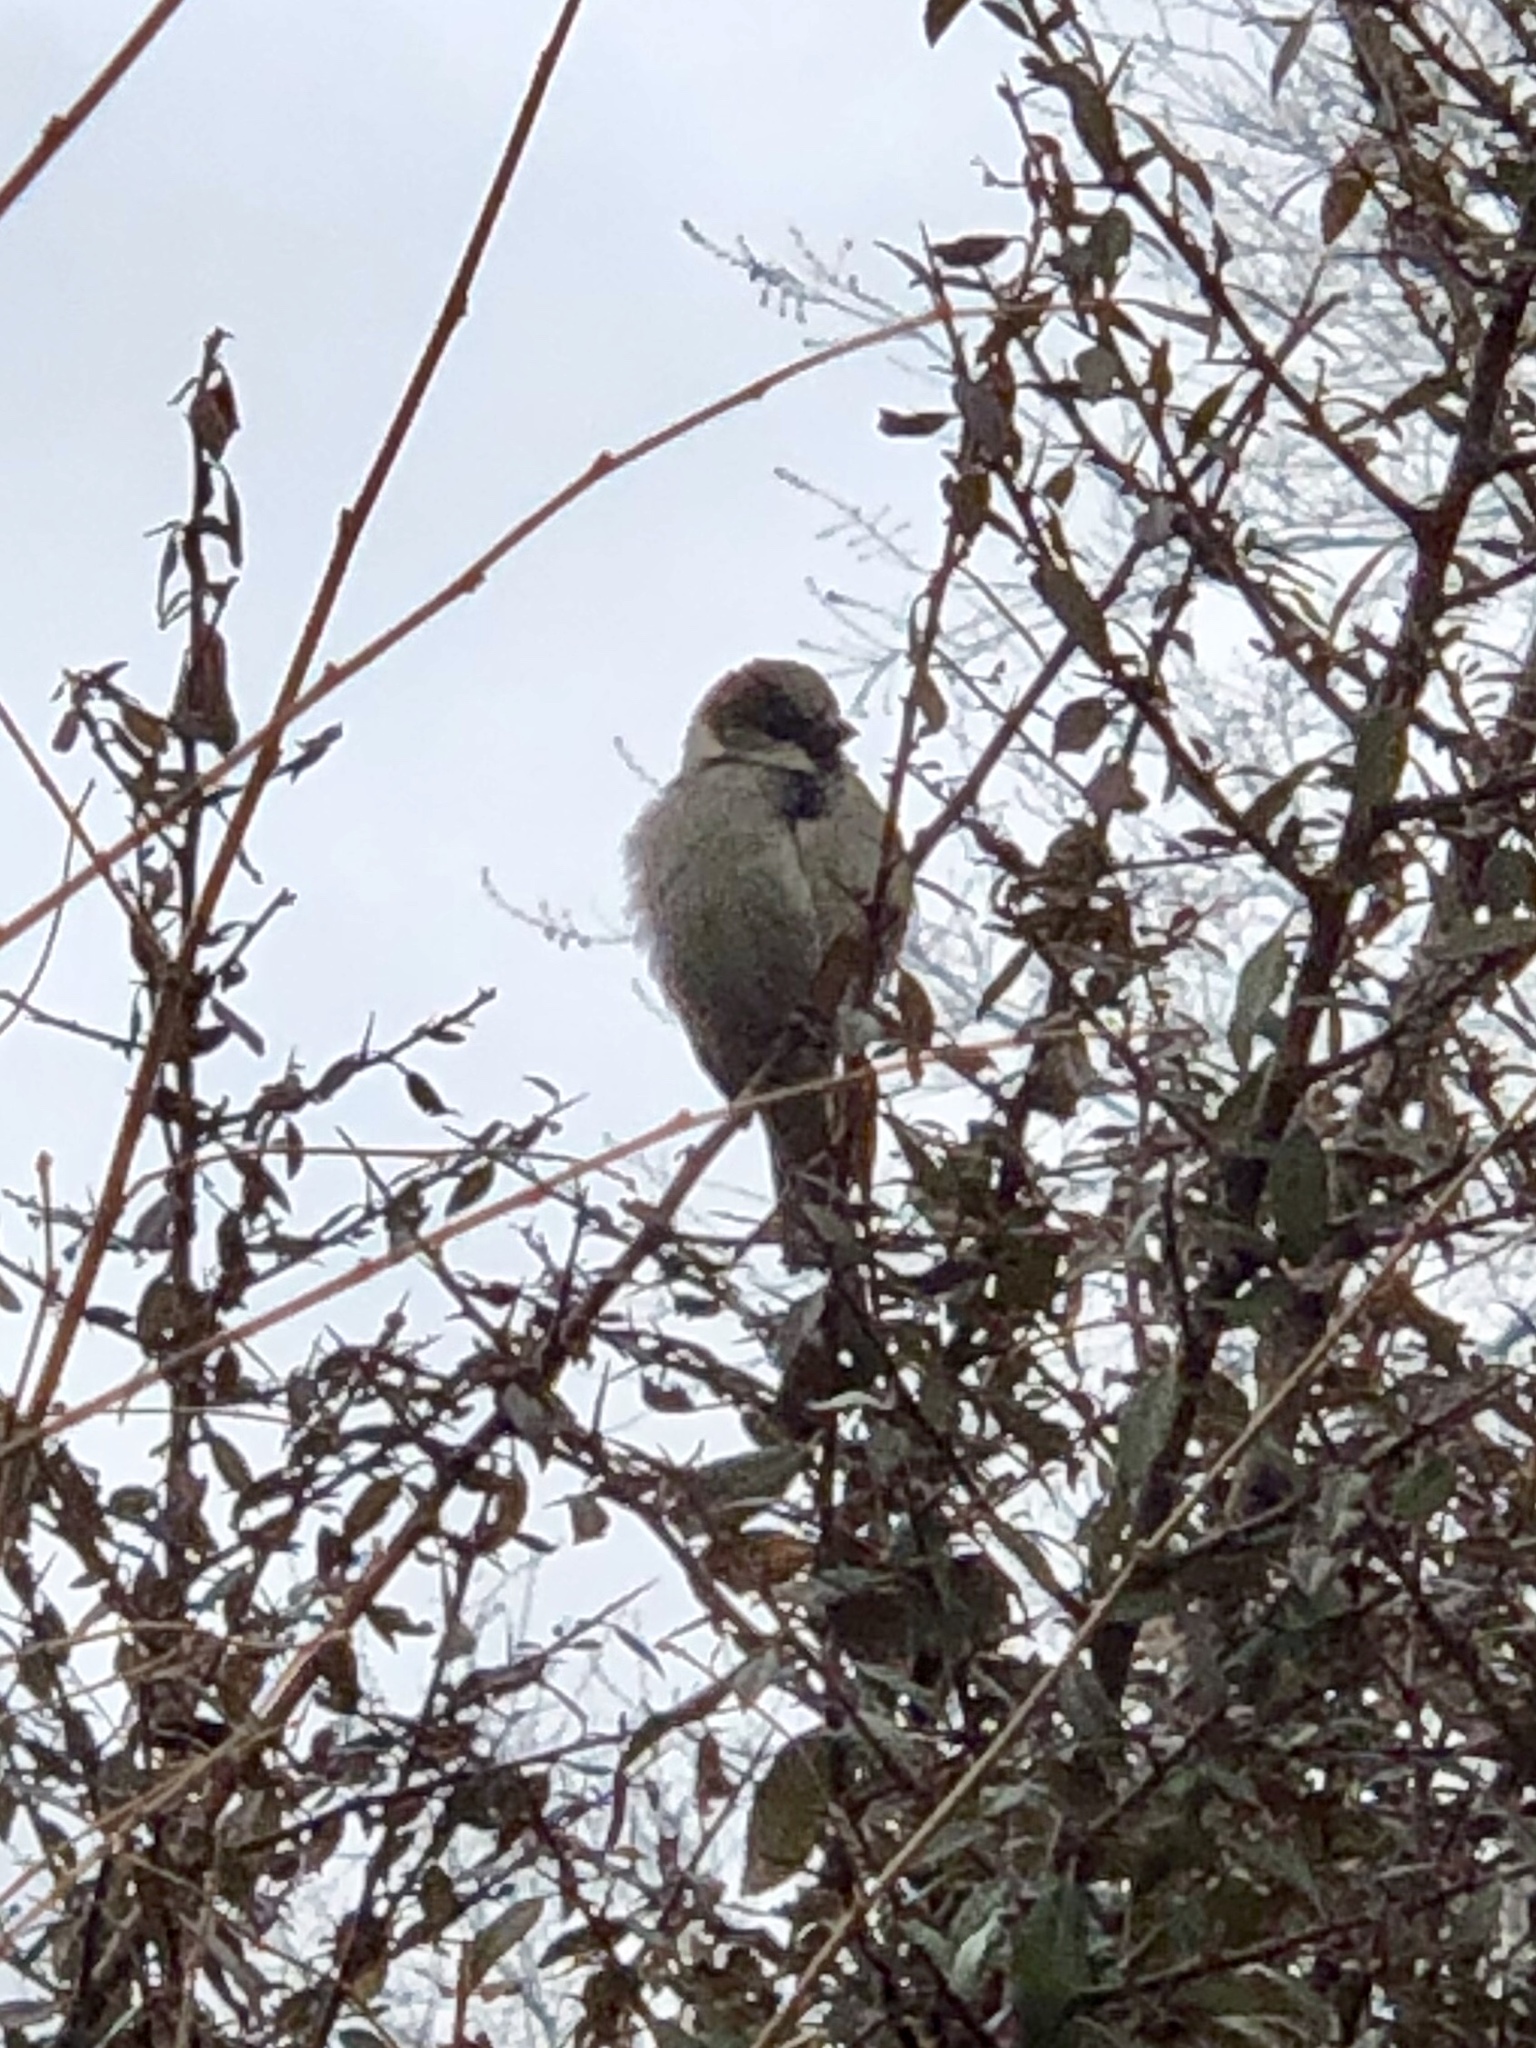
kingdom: Animalia
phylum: Chordata
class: Aves
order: Passeriformes
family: Passeridae
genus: Passer
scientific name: Passer domesticus
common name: House sparrow
